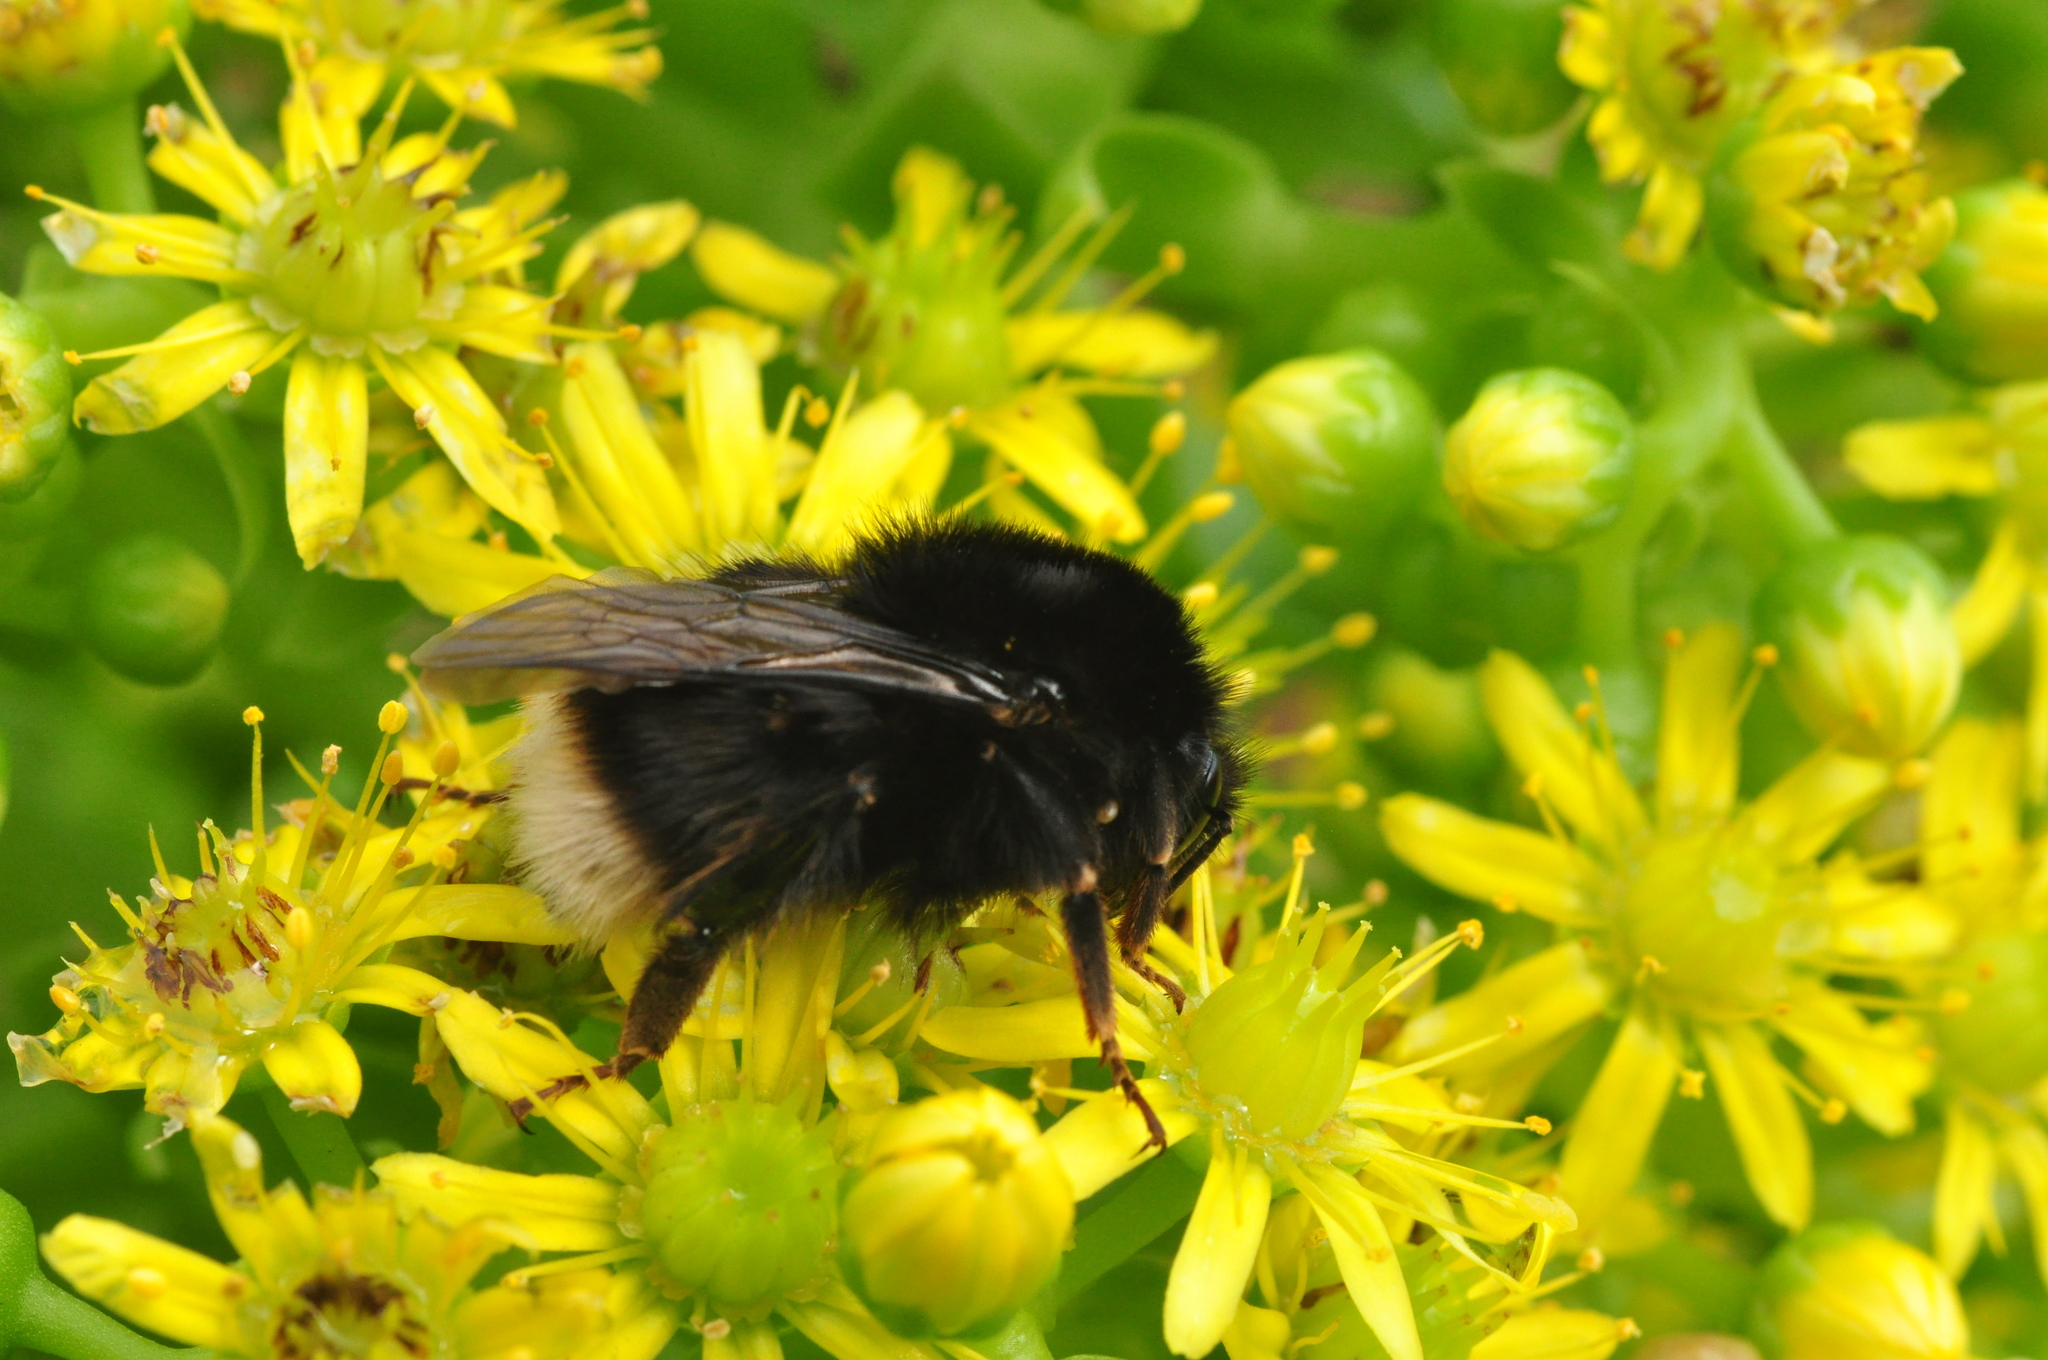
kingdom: Animalia
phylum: Arthropoda
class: Insecta
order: Hymenoptera
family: Apidae
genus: Bombus
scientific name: Bombus terrestris
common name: Buff-tailed bumblebee
